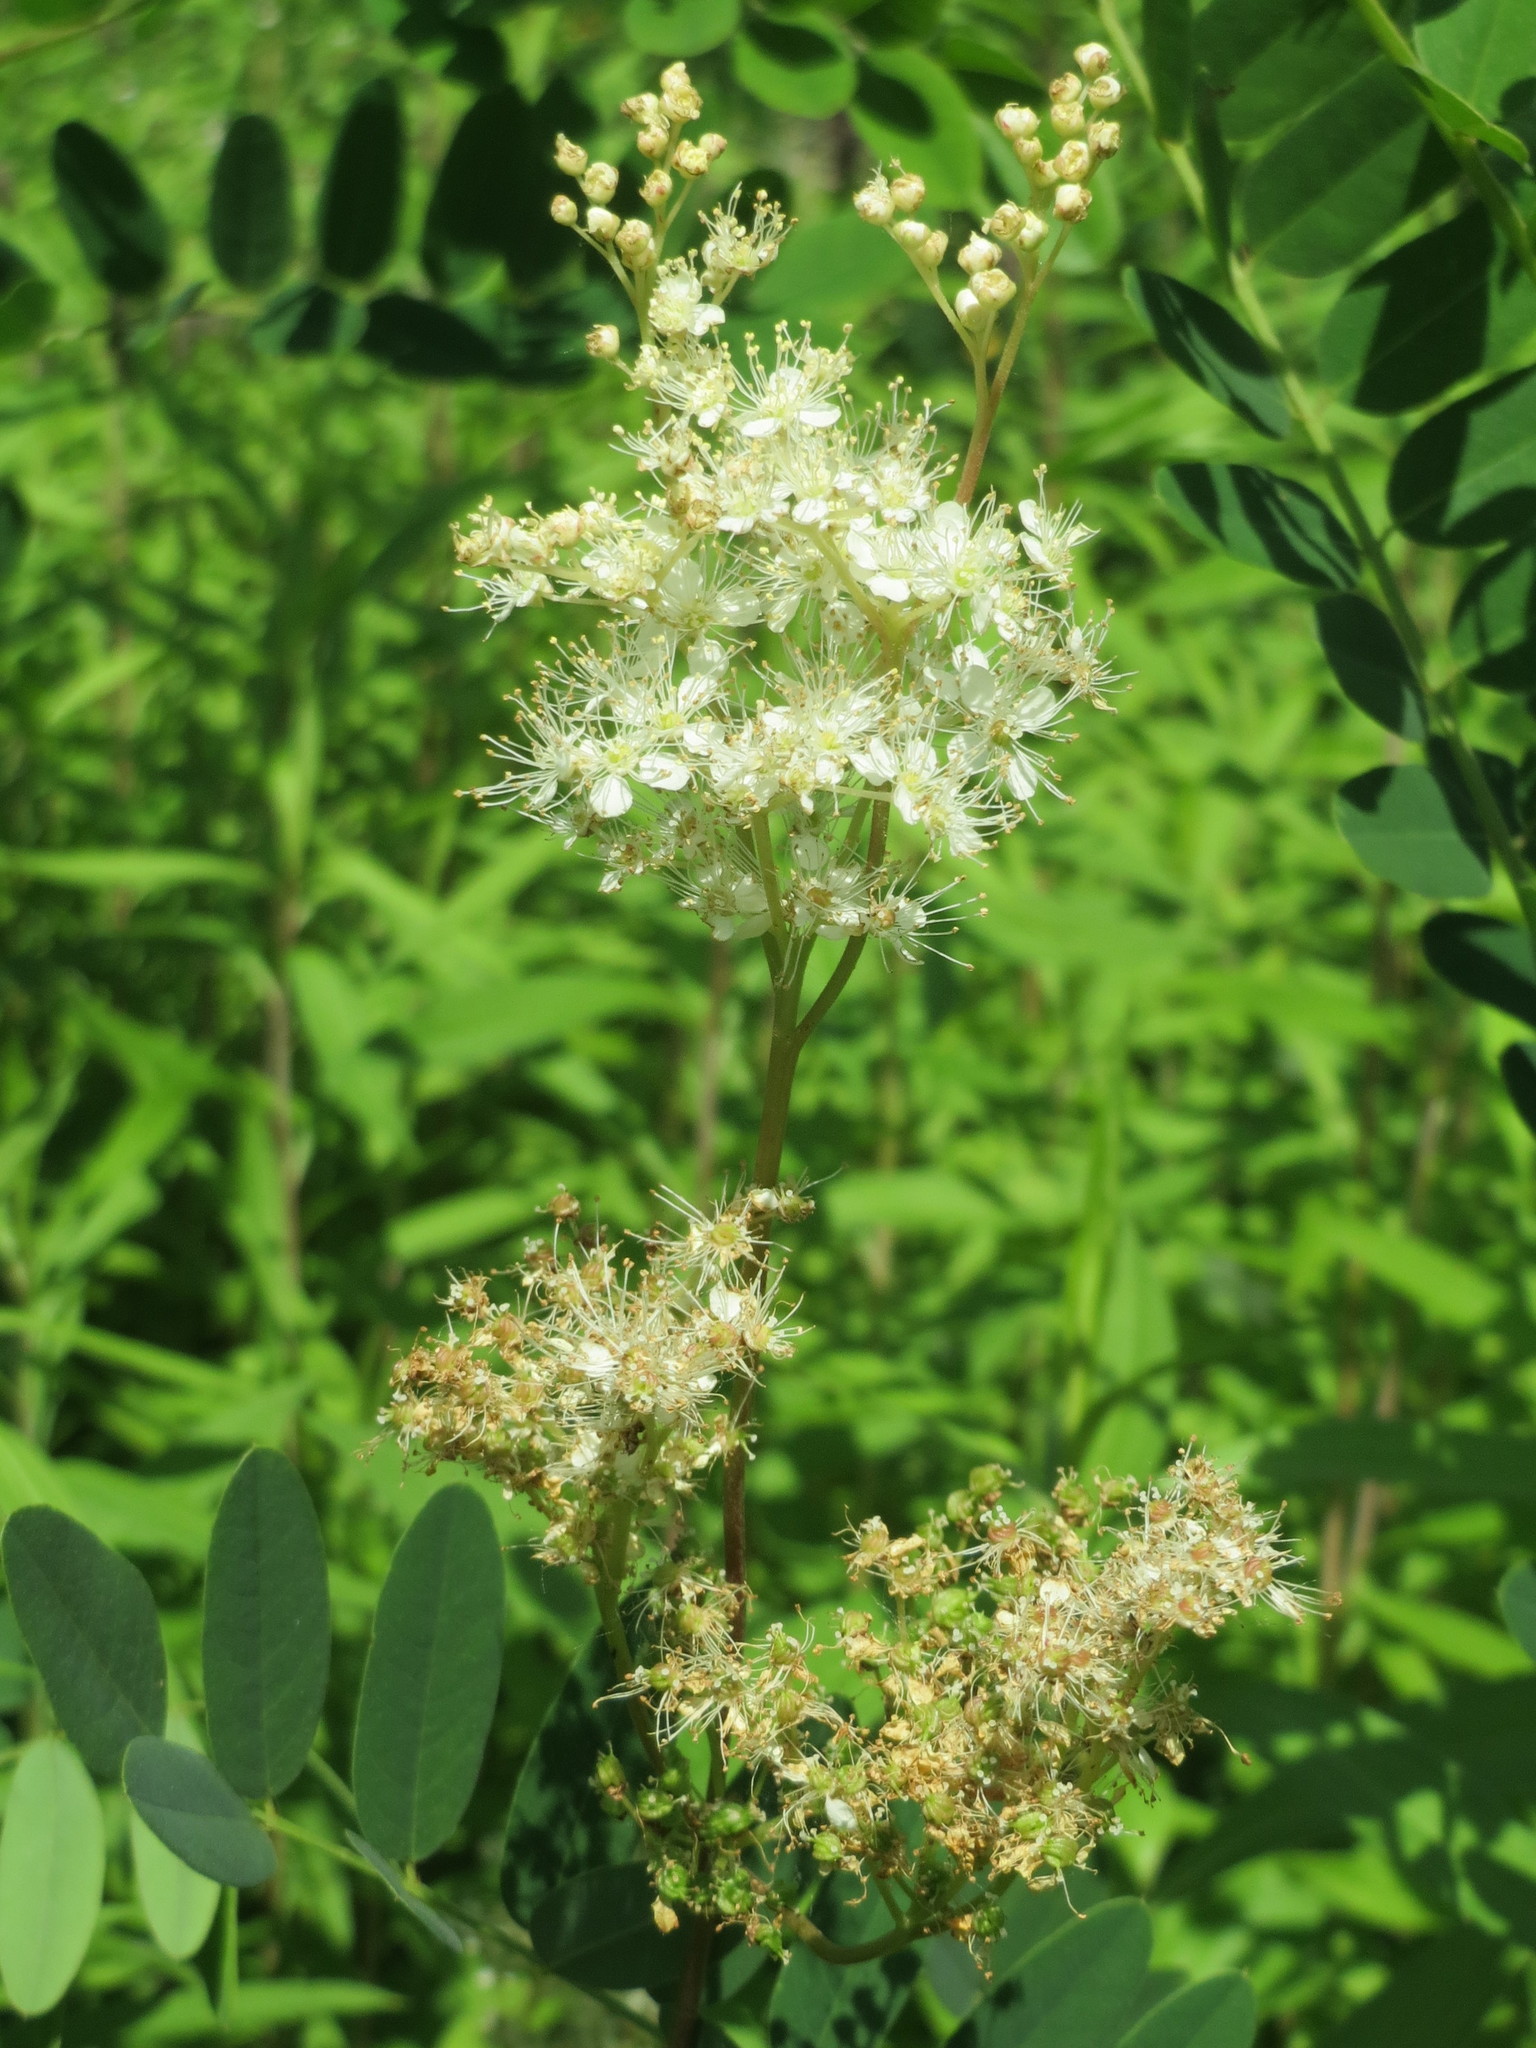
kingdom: Plantae
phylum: Tracheophyta
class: Magnoliopsida
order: Rosales
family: Rosaceae
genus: Filipendula
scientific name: Filipendula ulmaria
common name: Meadowsweet
